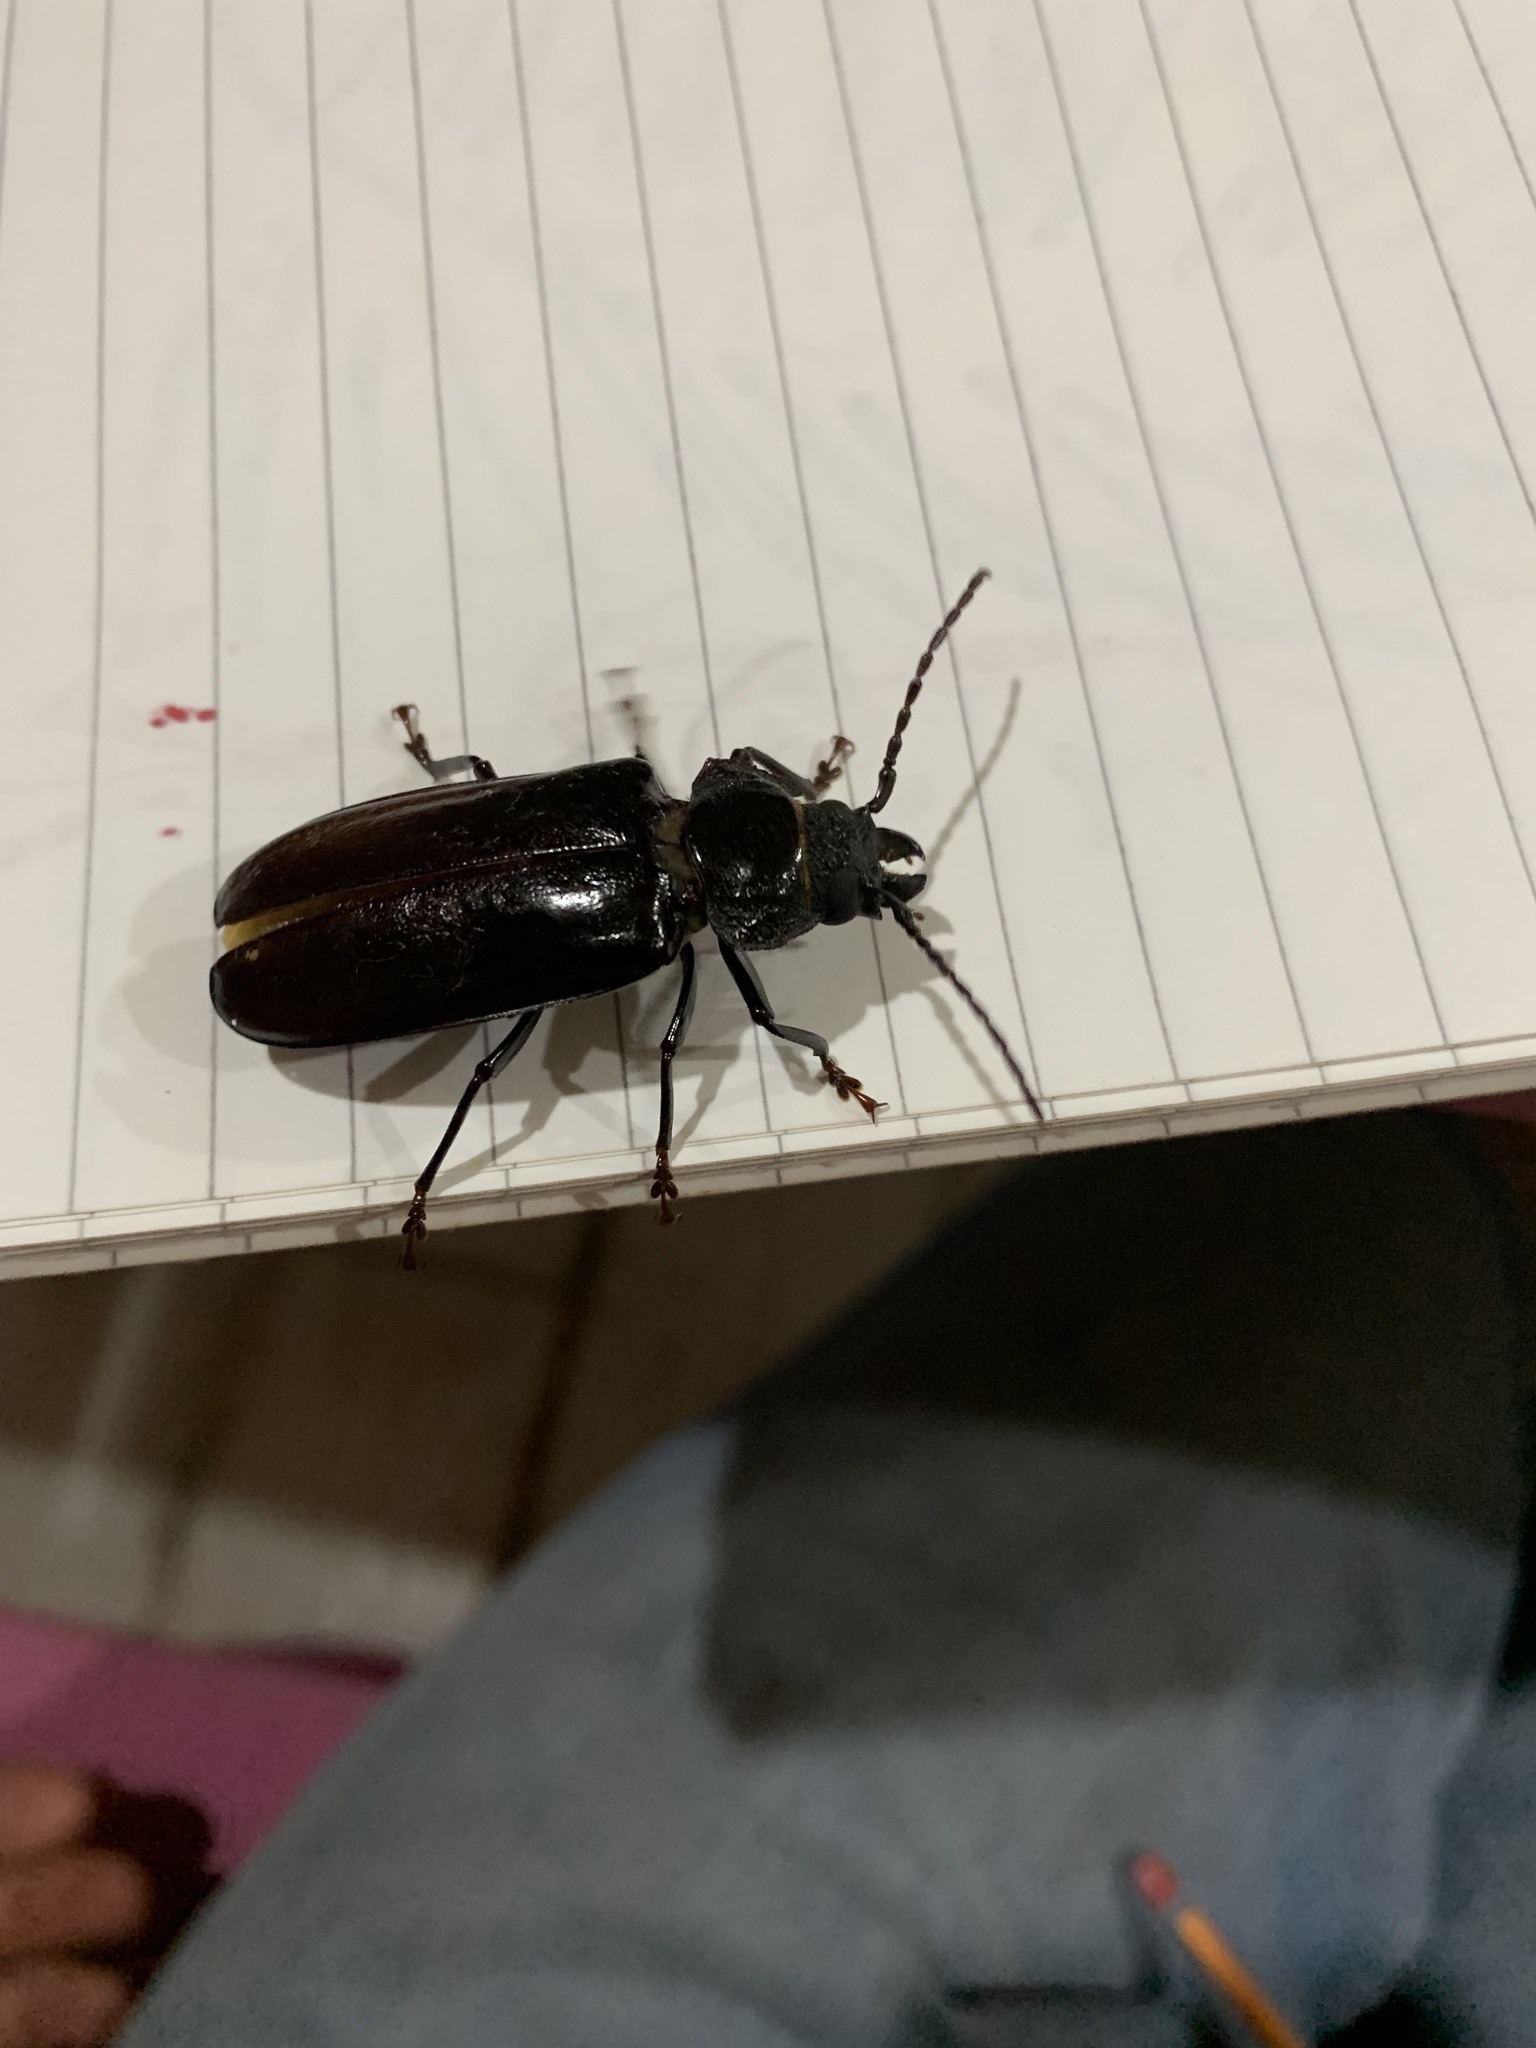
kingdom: Animalia
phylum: Arthropoda
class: Insecta
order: Coleoptera
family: Cerambycidae
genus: Mallodon
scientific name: Mallodon dasystomum
